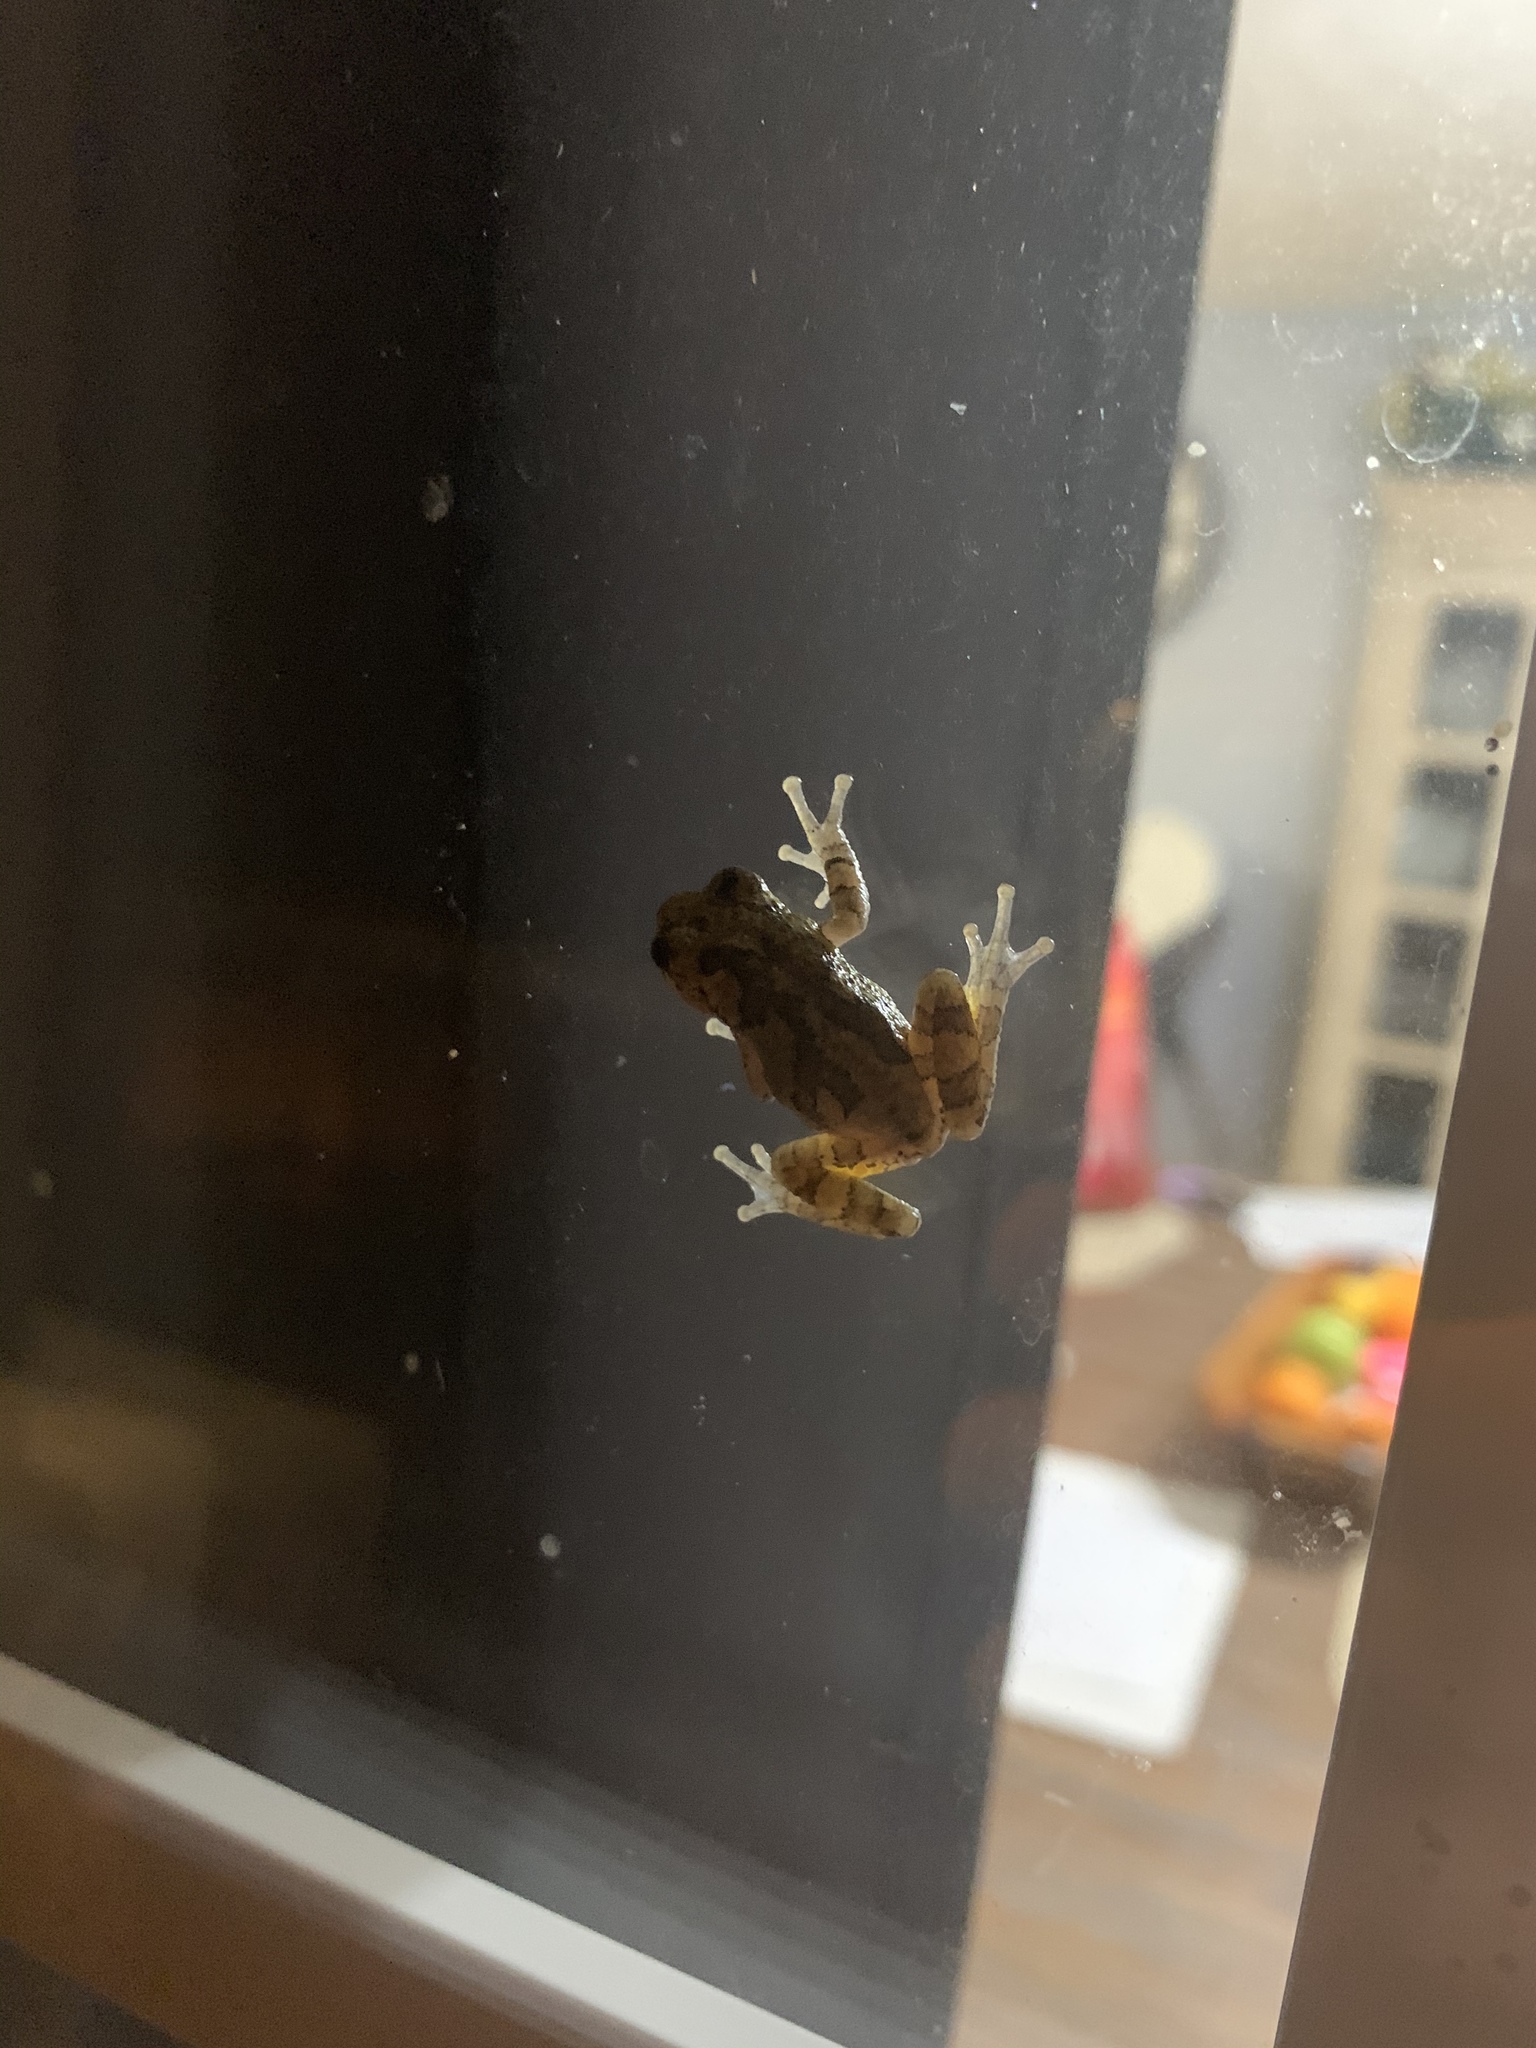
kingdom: Animalia
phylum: Chordata
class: Amphibia
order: Anura
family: Hylidae
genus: Dryophytes
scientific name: Dryophytes chrysoscelis
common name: Cope's gray treefrog
